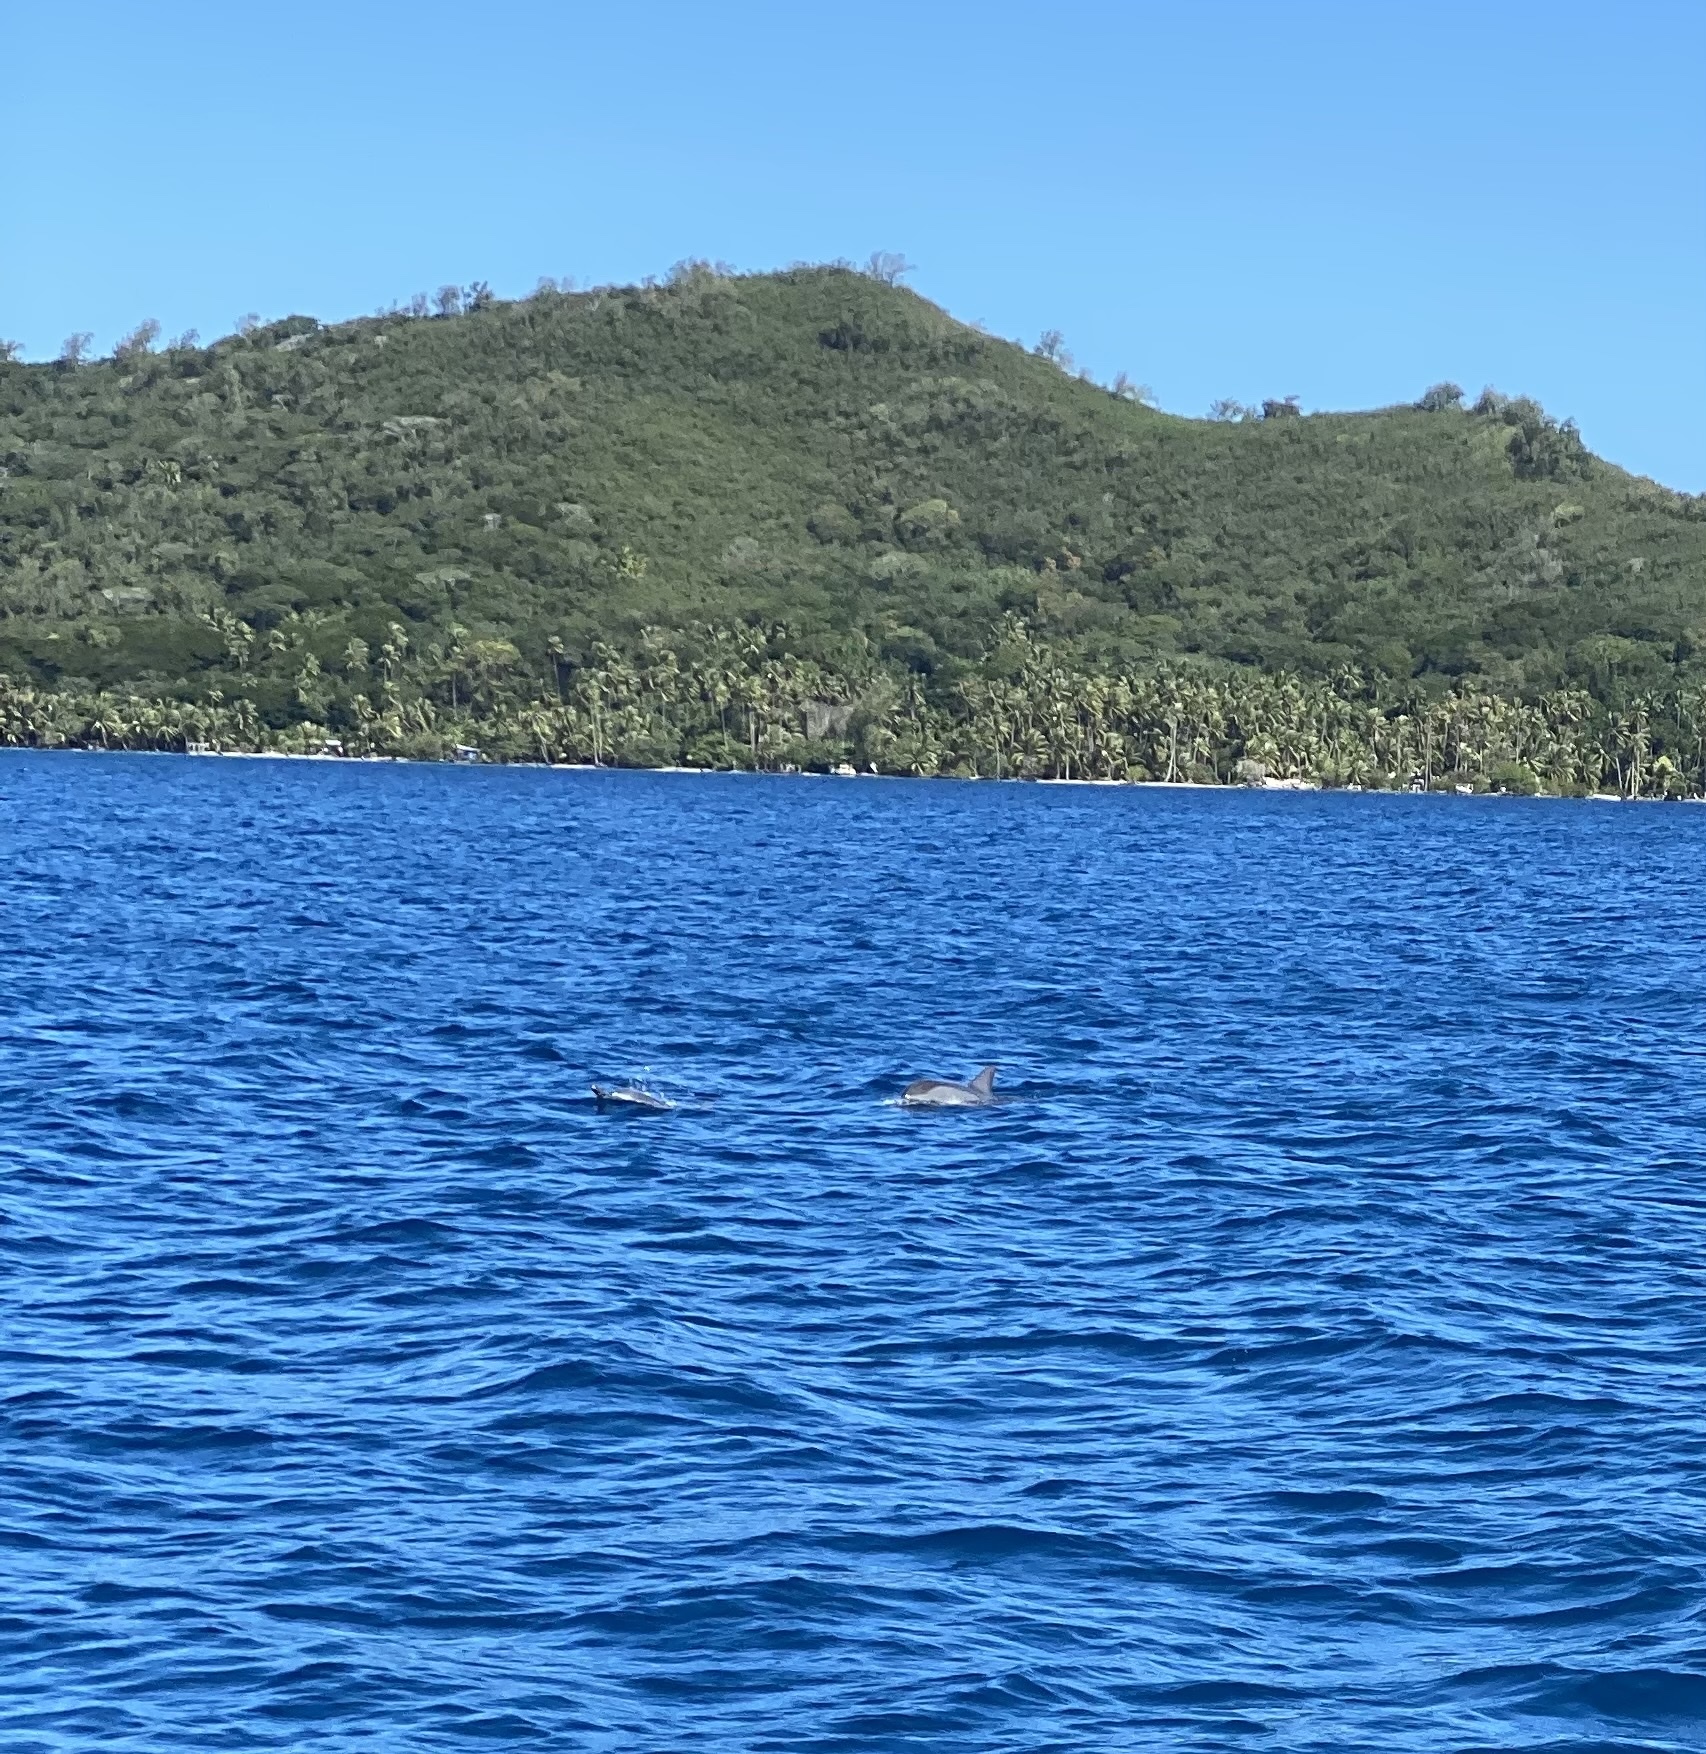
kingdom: Animalia
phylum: Chordata
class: Mammalia
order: Cetacea
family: Delphinidae
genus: Stenella
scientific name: Stenella longirostris
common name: Spinner dolphin
